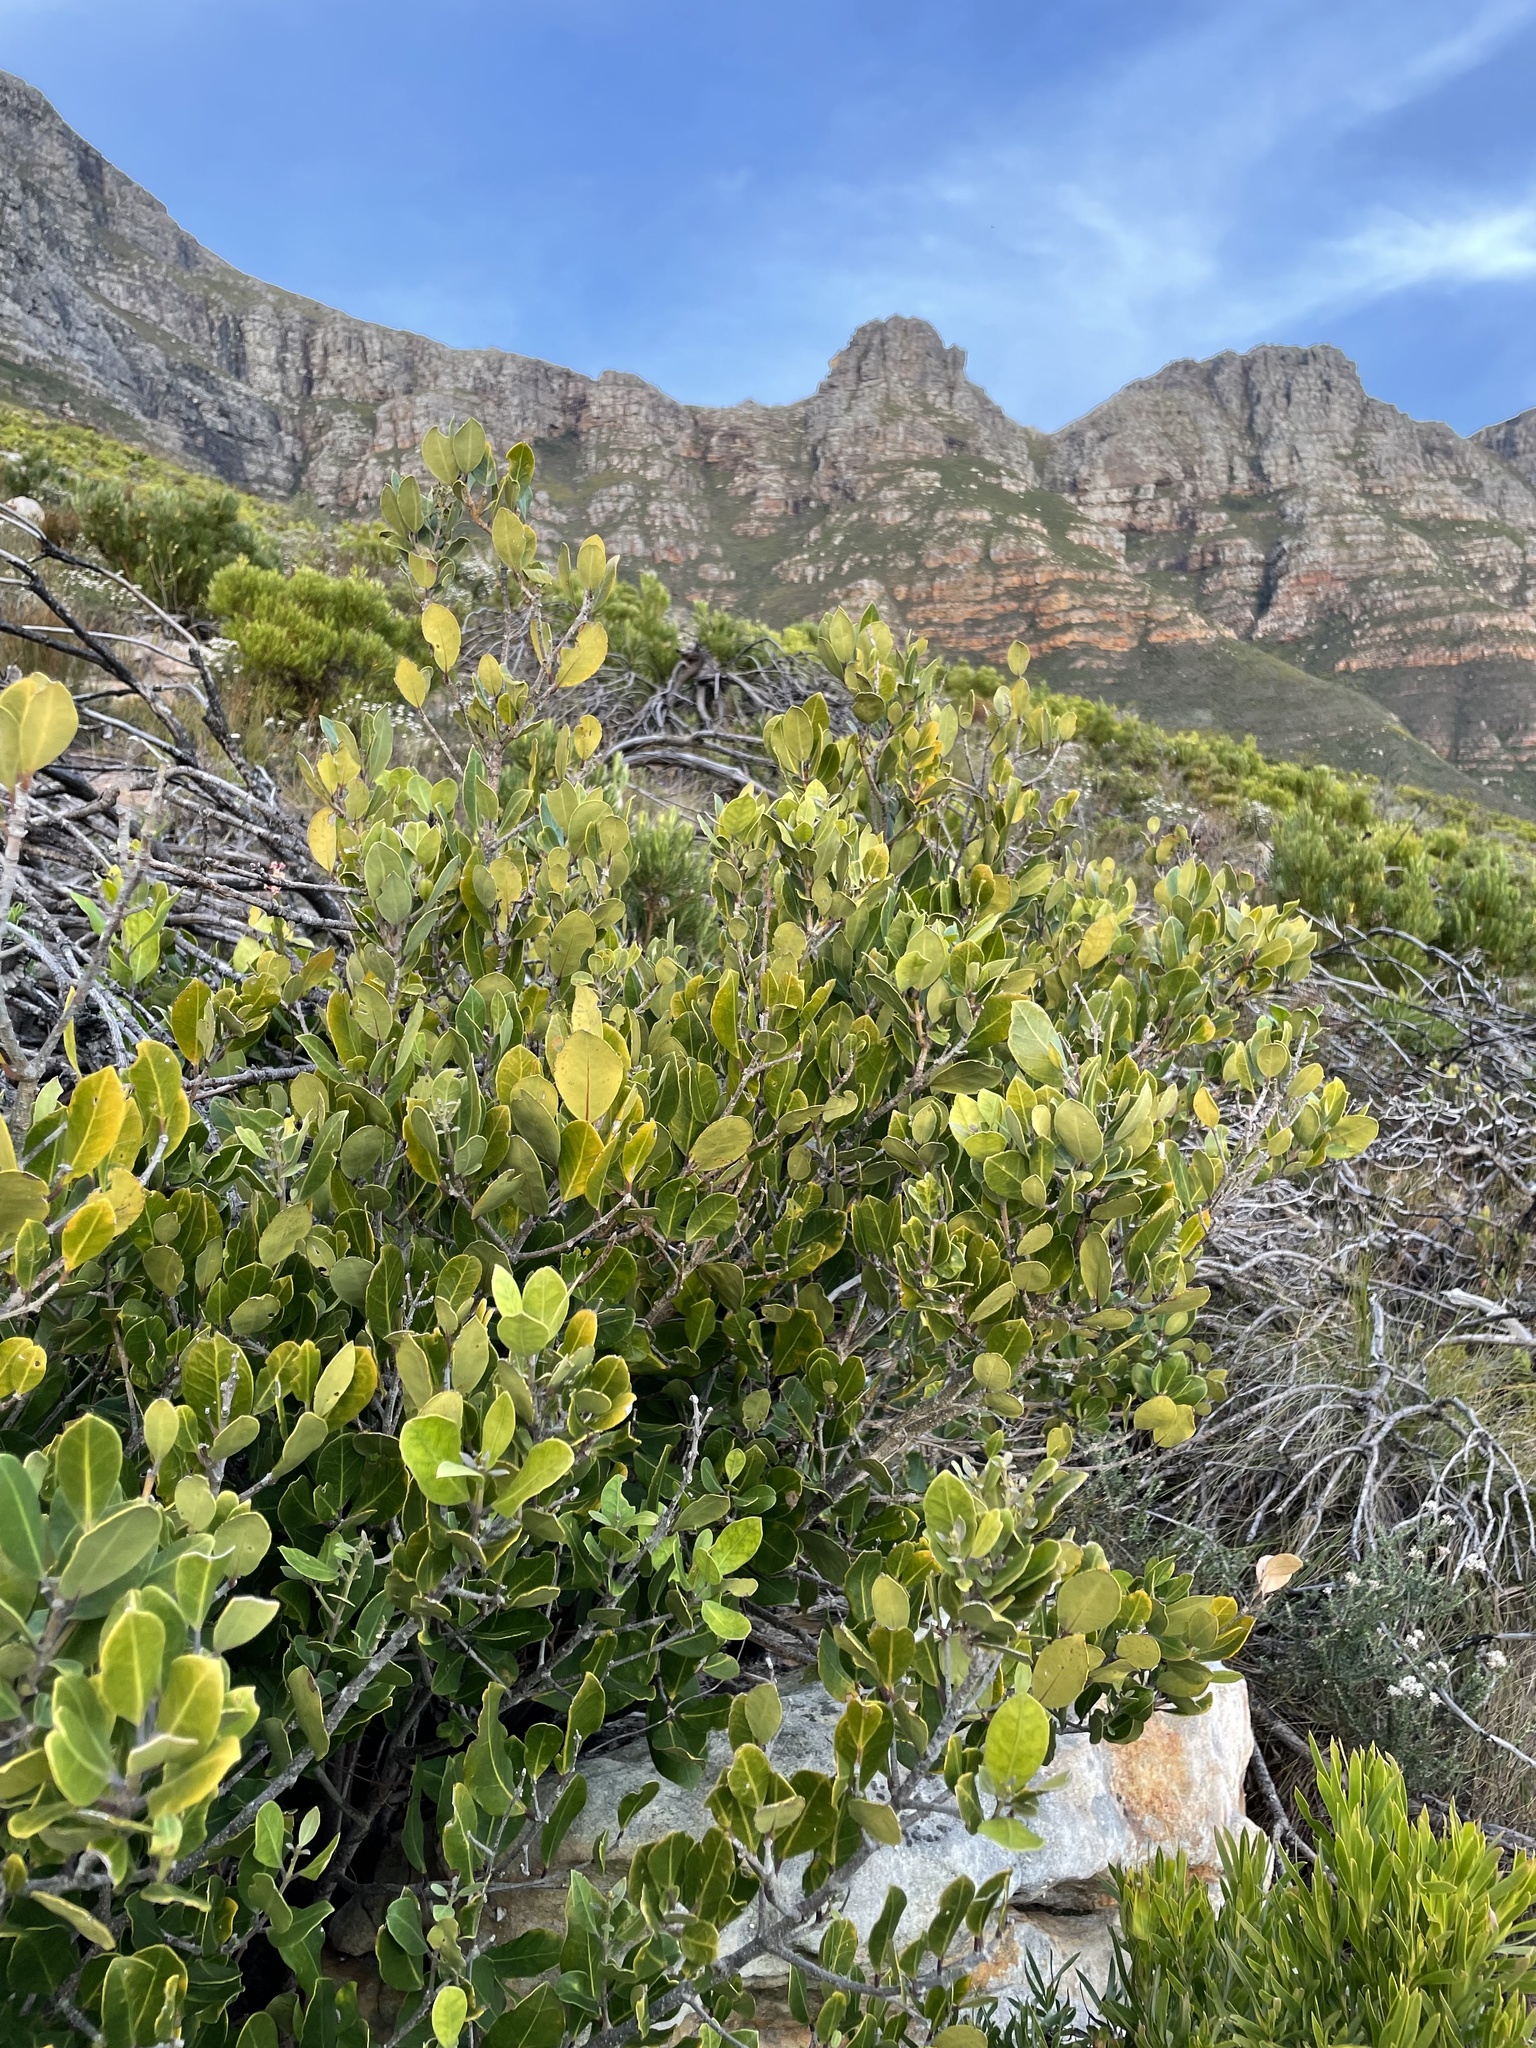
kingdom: Plantae
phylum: Tracheophyta
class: Magnoliopsida
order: Lamiales
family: Oleaceae
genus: Olea
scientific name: Olea capensis
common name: Black ironwood
